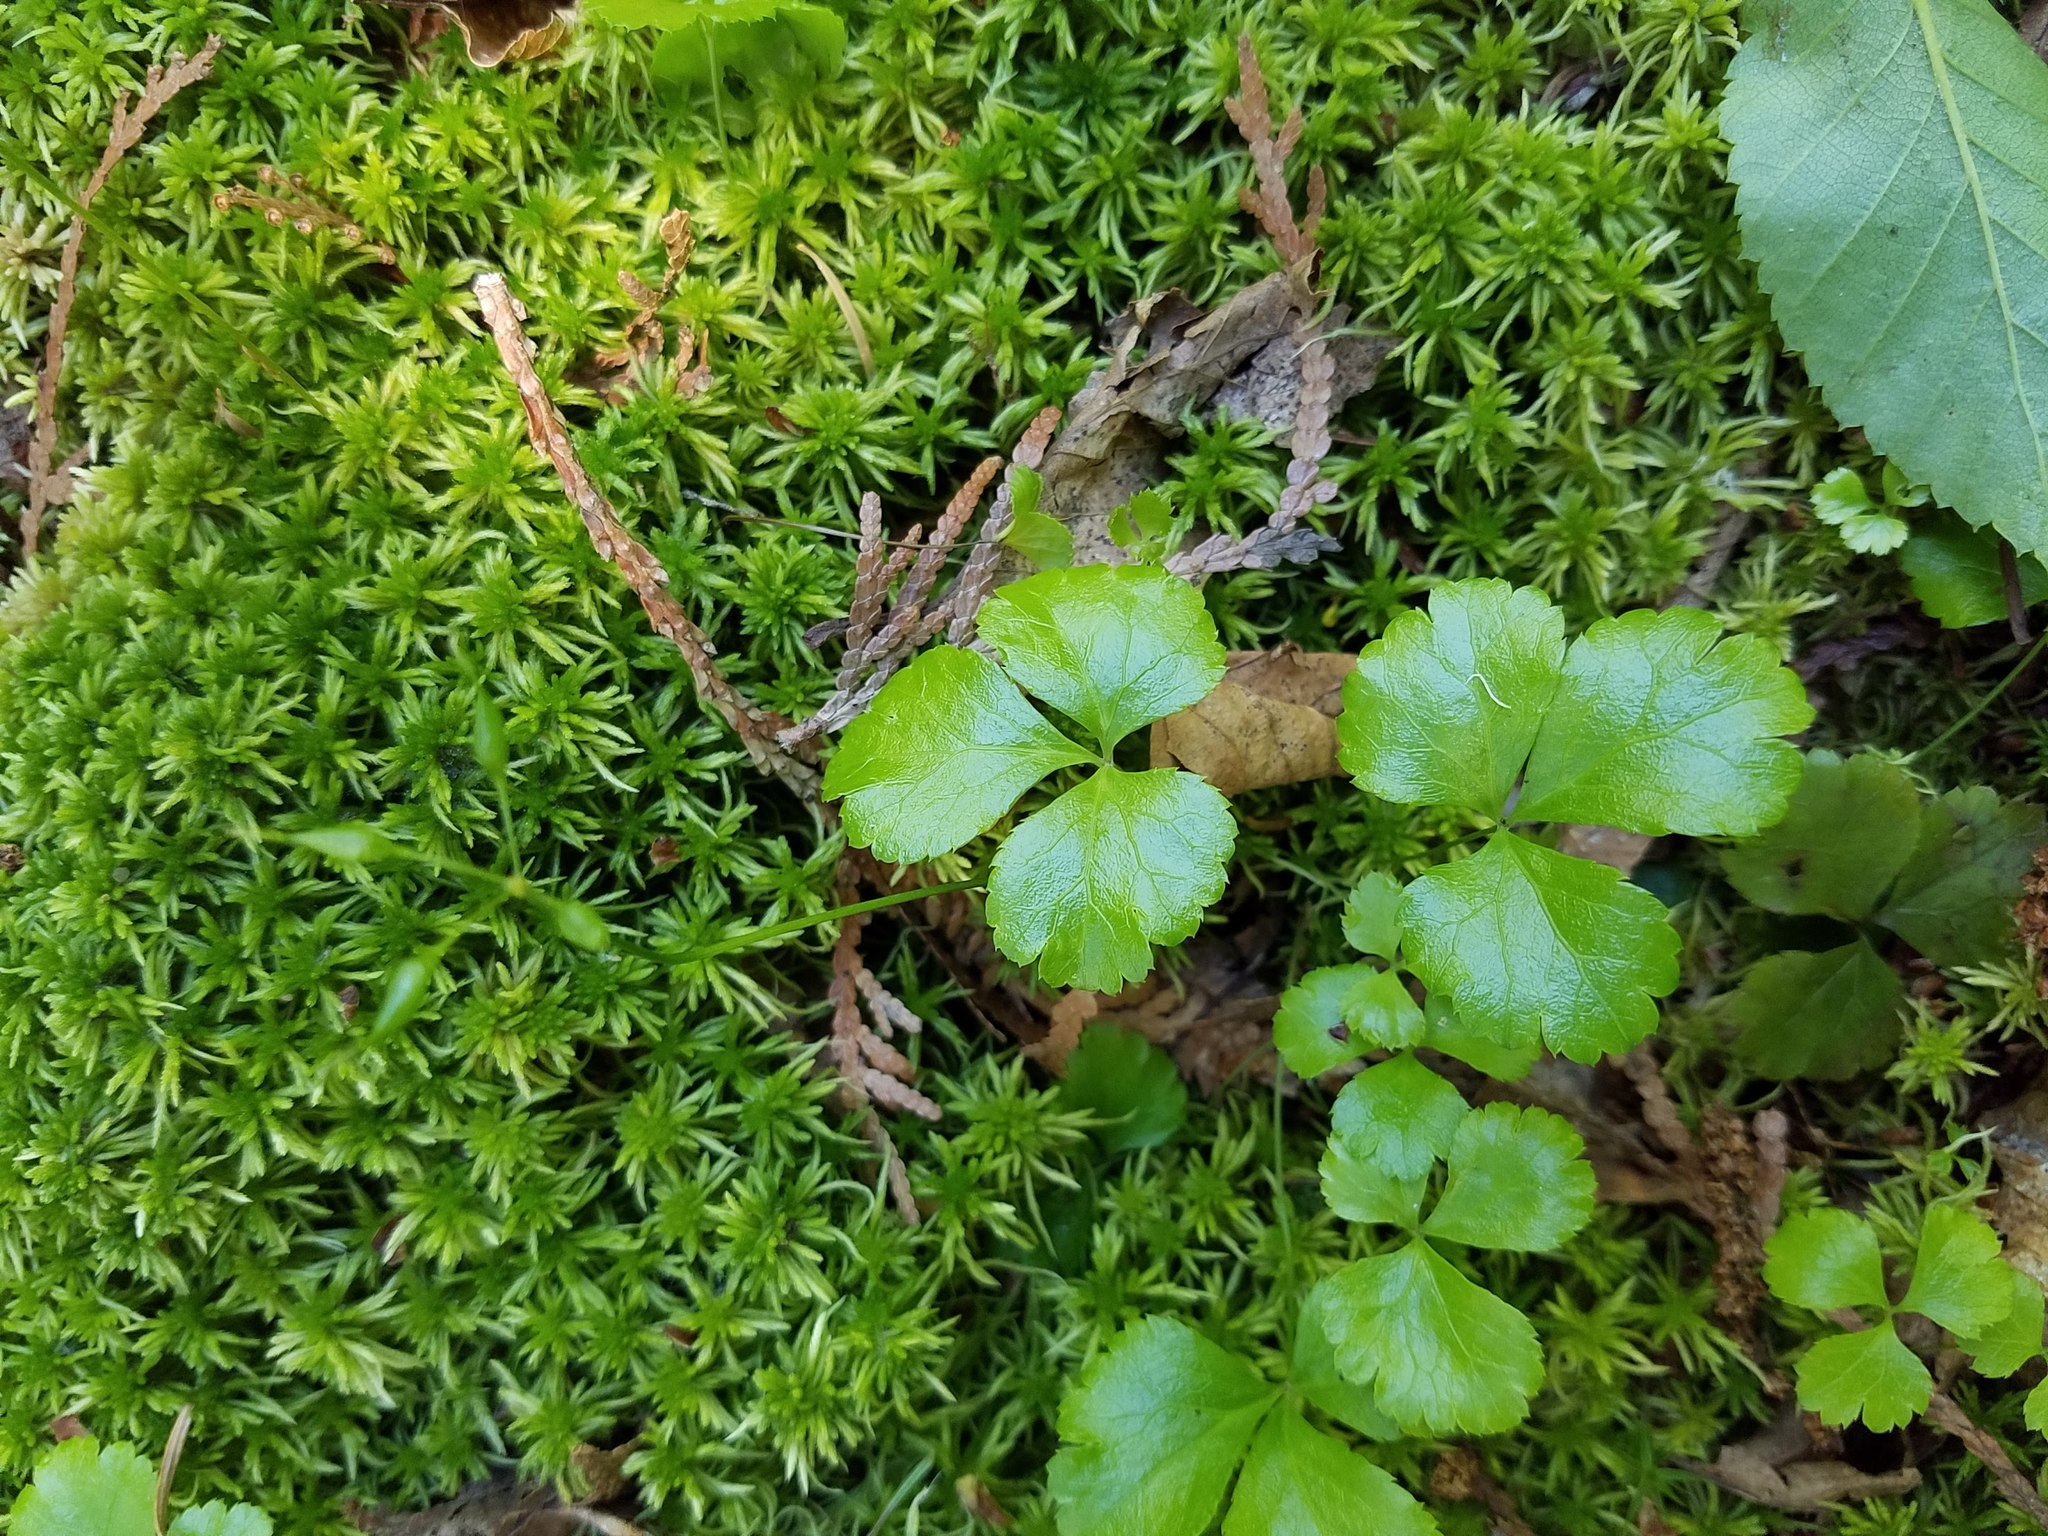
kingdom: Plantae
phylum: Tracheophyta
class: Magnoliopsida
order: Ranunculales
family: Ranunculaceae
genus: Coptis
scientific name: Coptis trifolia
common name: Canker-root
